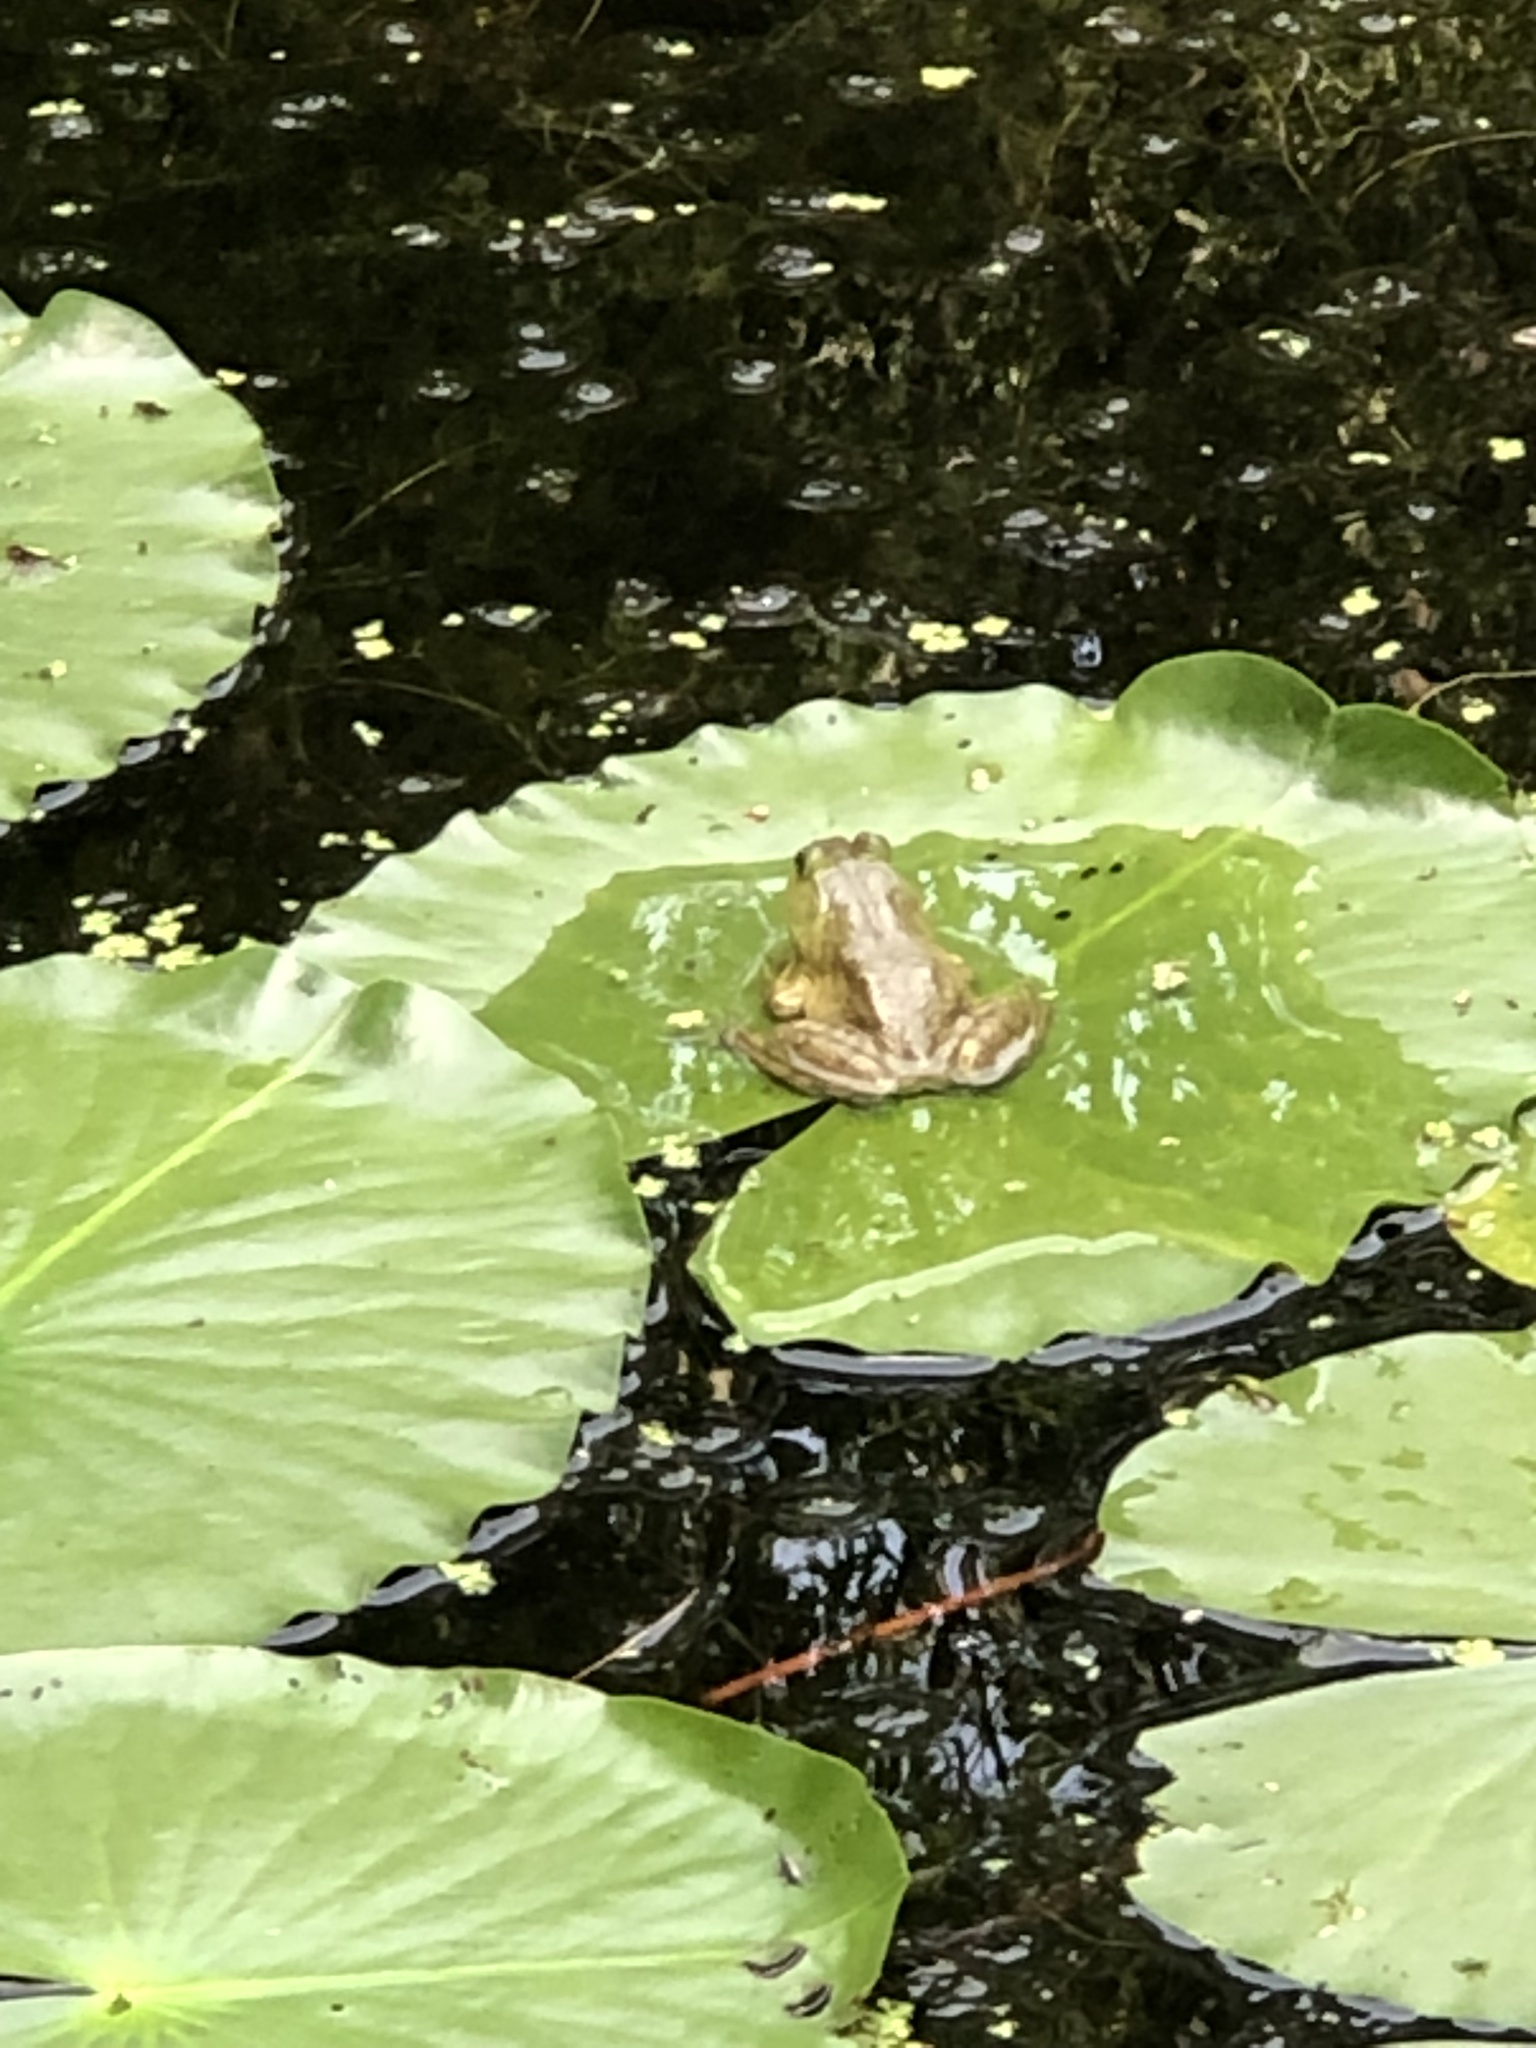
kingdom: Animalia
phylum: Chordata
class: Amphibia
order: Anura
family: Ranidae
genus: Lithobates
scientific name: Lithobates catesbeianus
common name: American bullfrog
